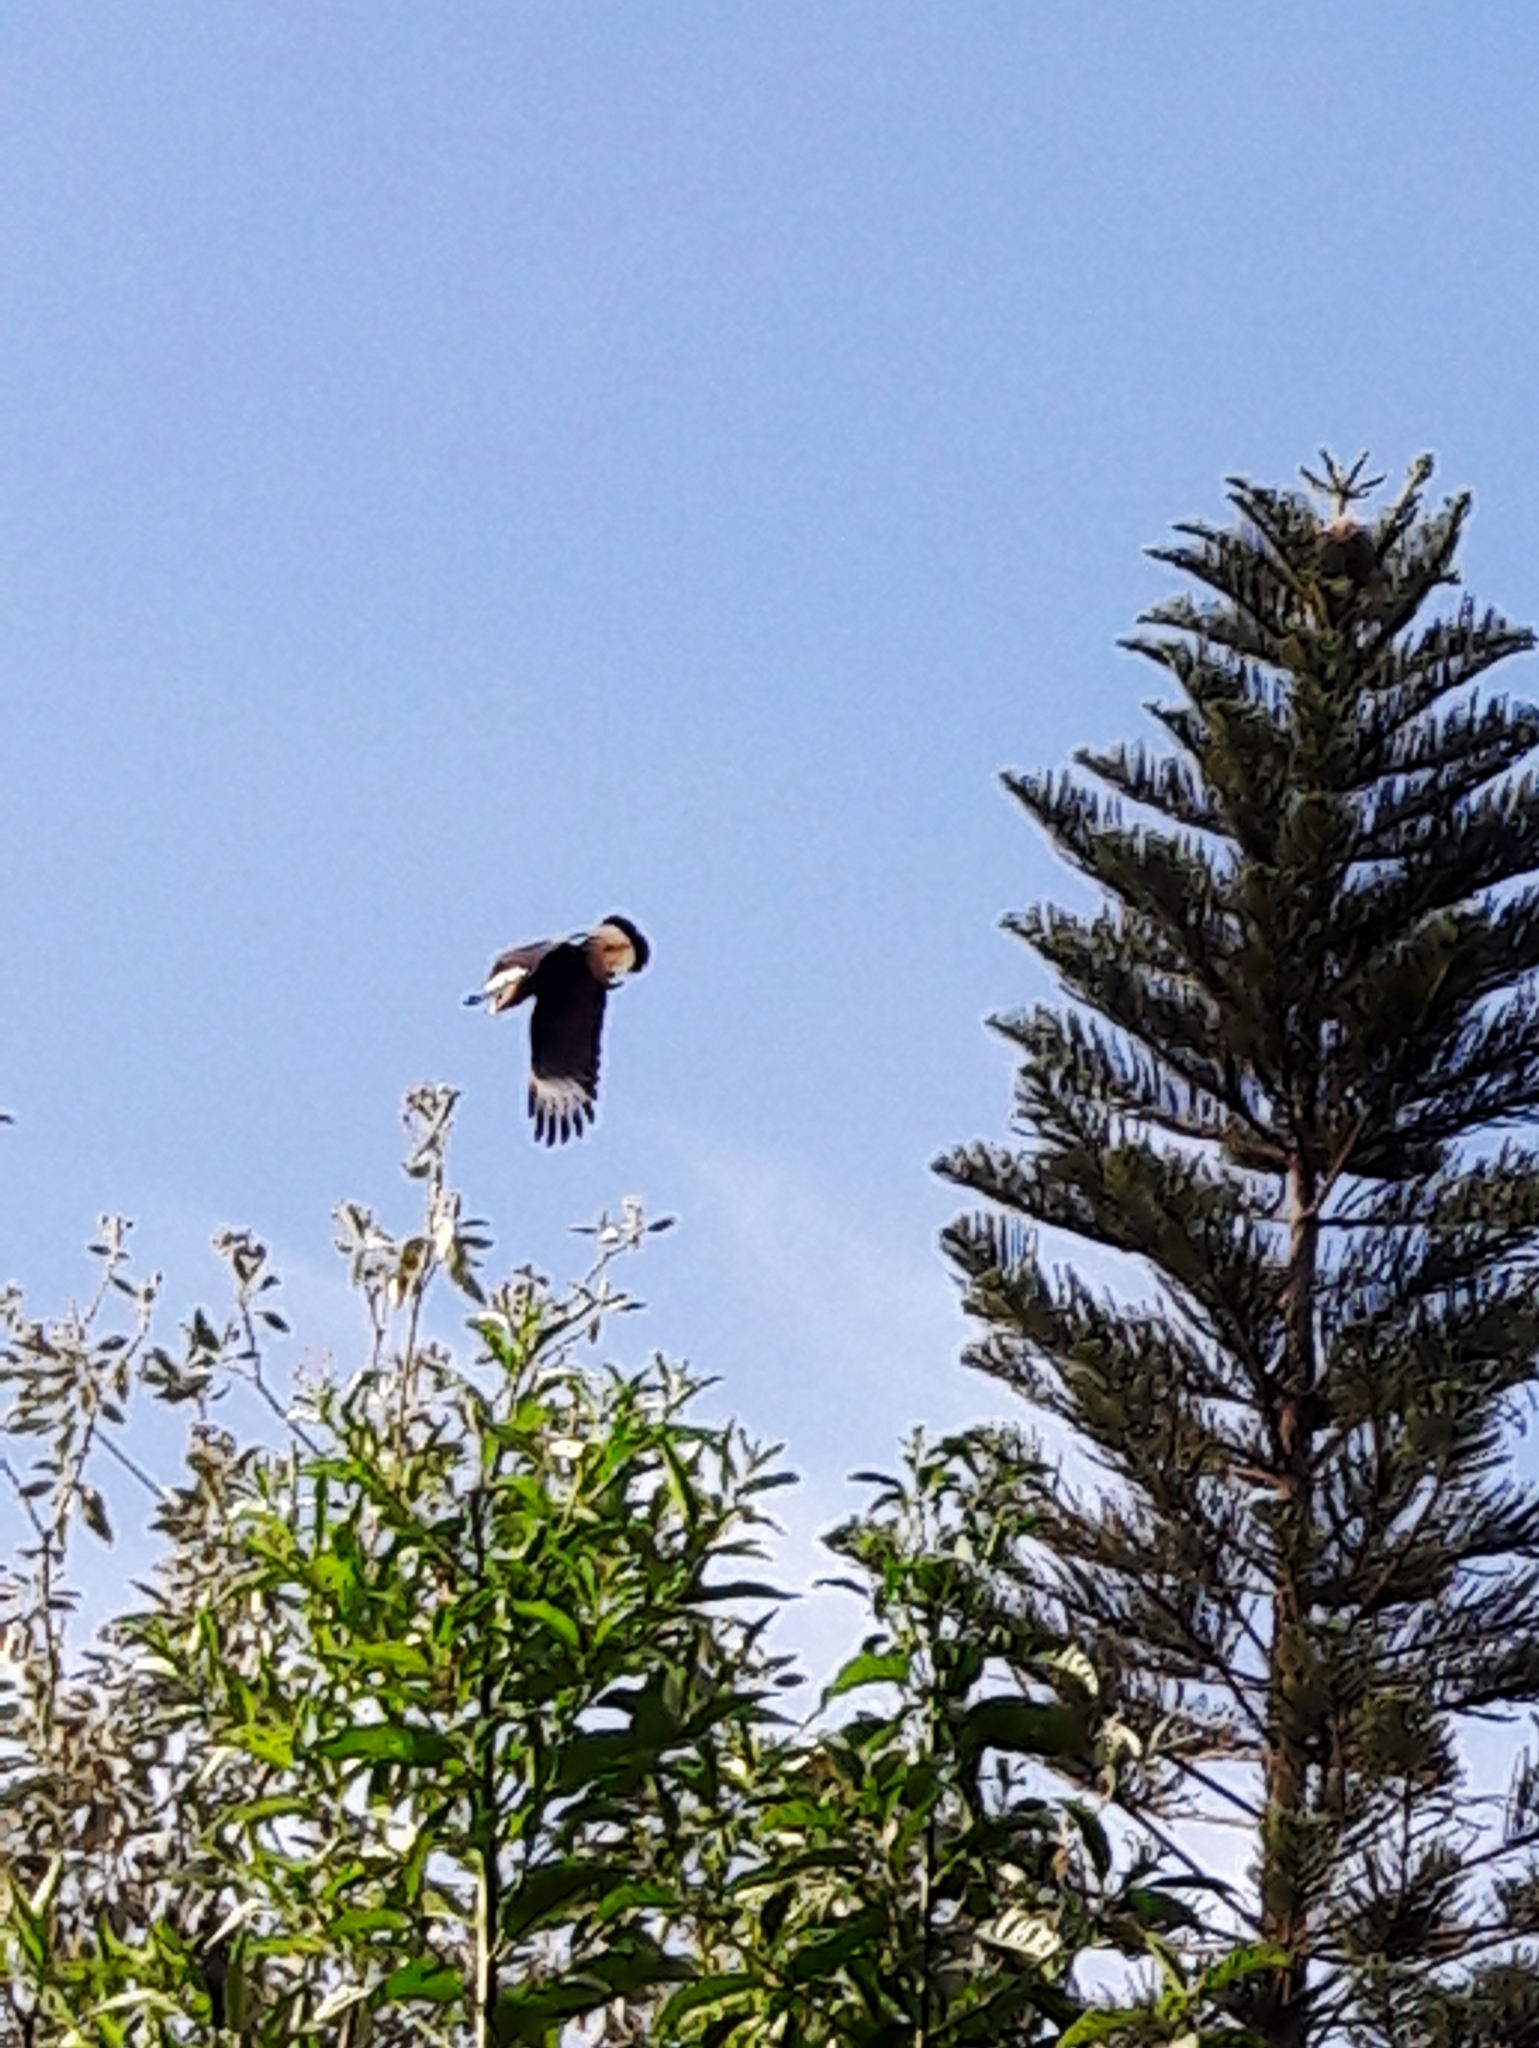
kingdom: Animalia
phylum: Chordata
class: Aves
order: Falconiformes
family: Falconidae
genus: Caracara
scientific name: Caracara plancus
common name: Southern caracara
